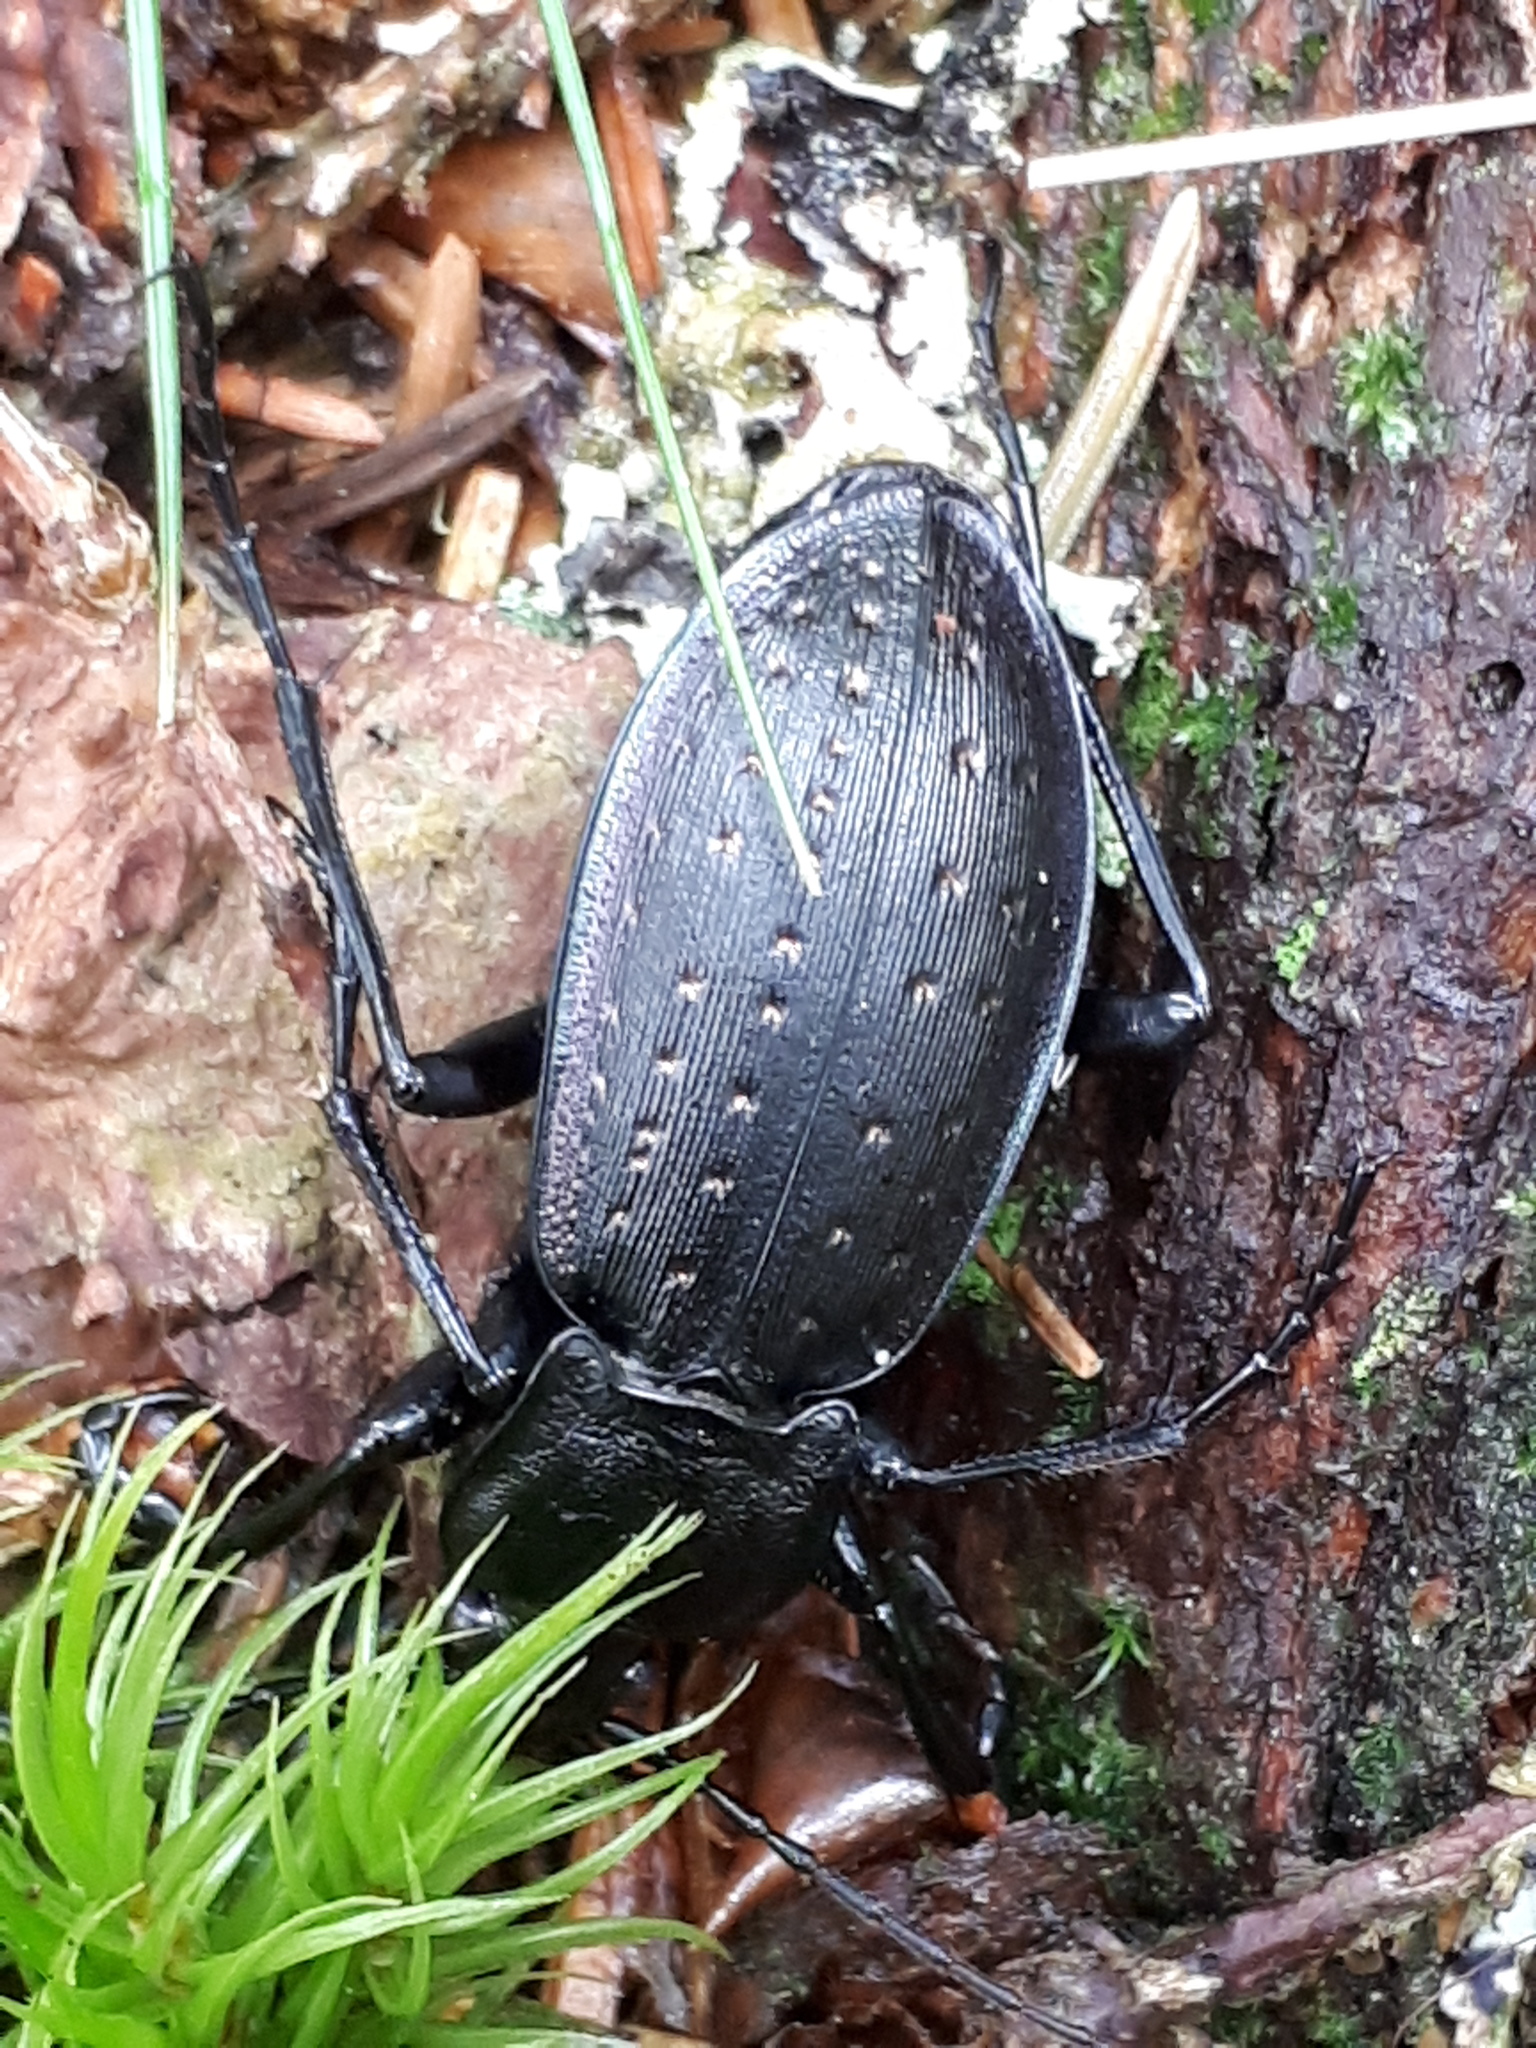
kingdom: Animalia
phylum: Arthropoda
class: Insecta
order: Coleoptera
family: Carabidae
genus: Carabus
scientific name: Carabus hortensis
